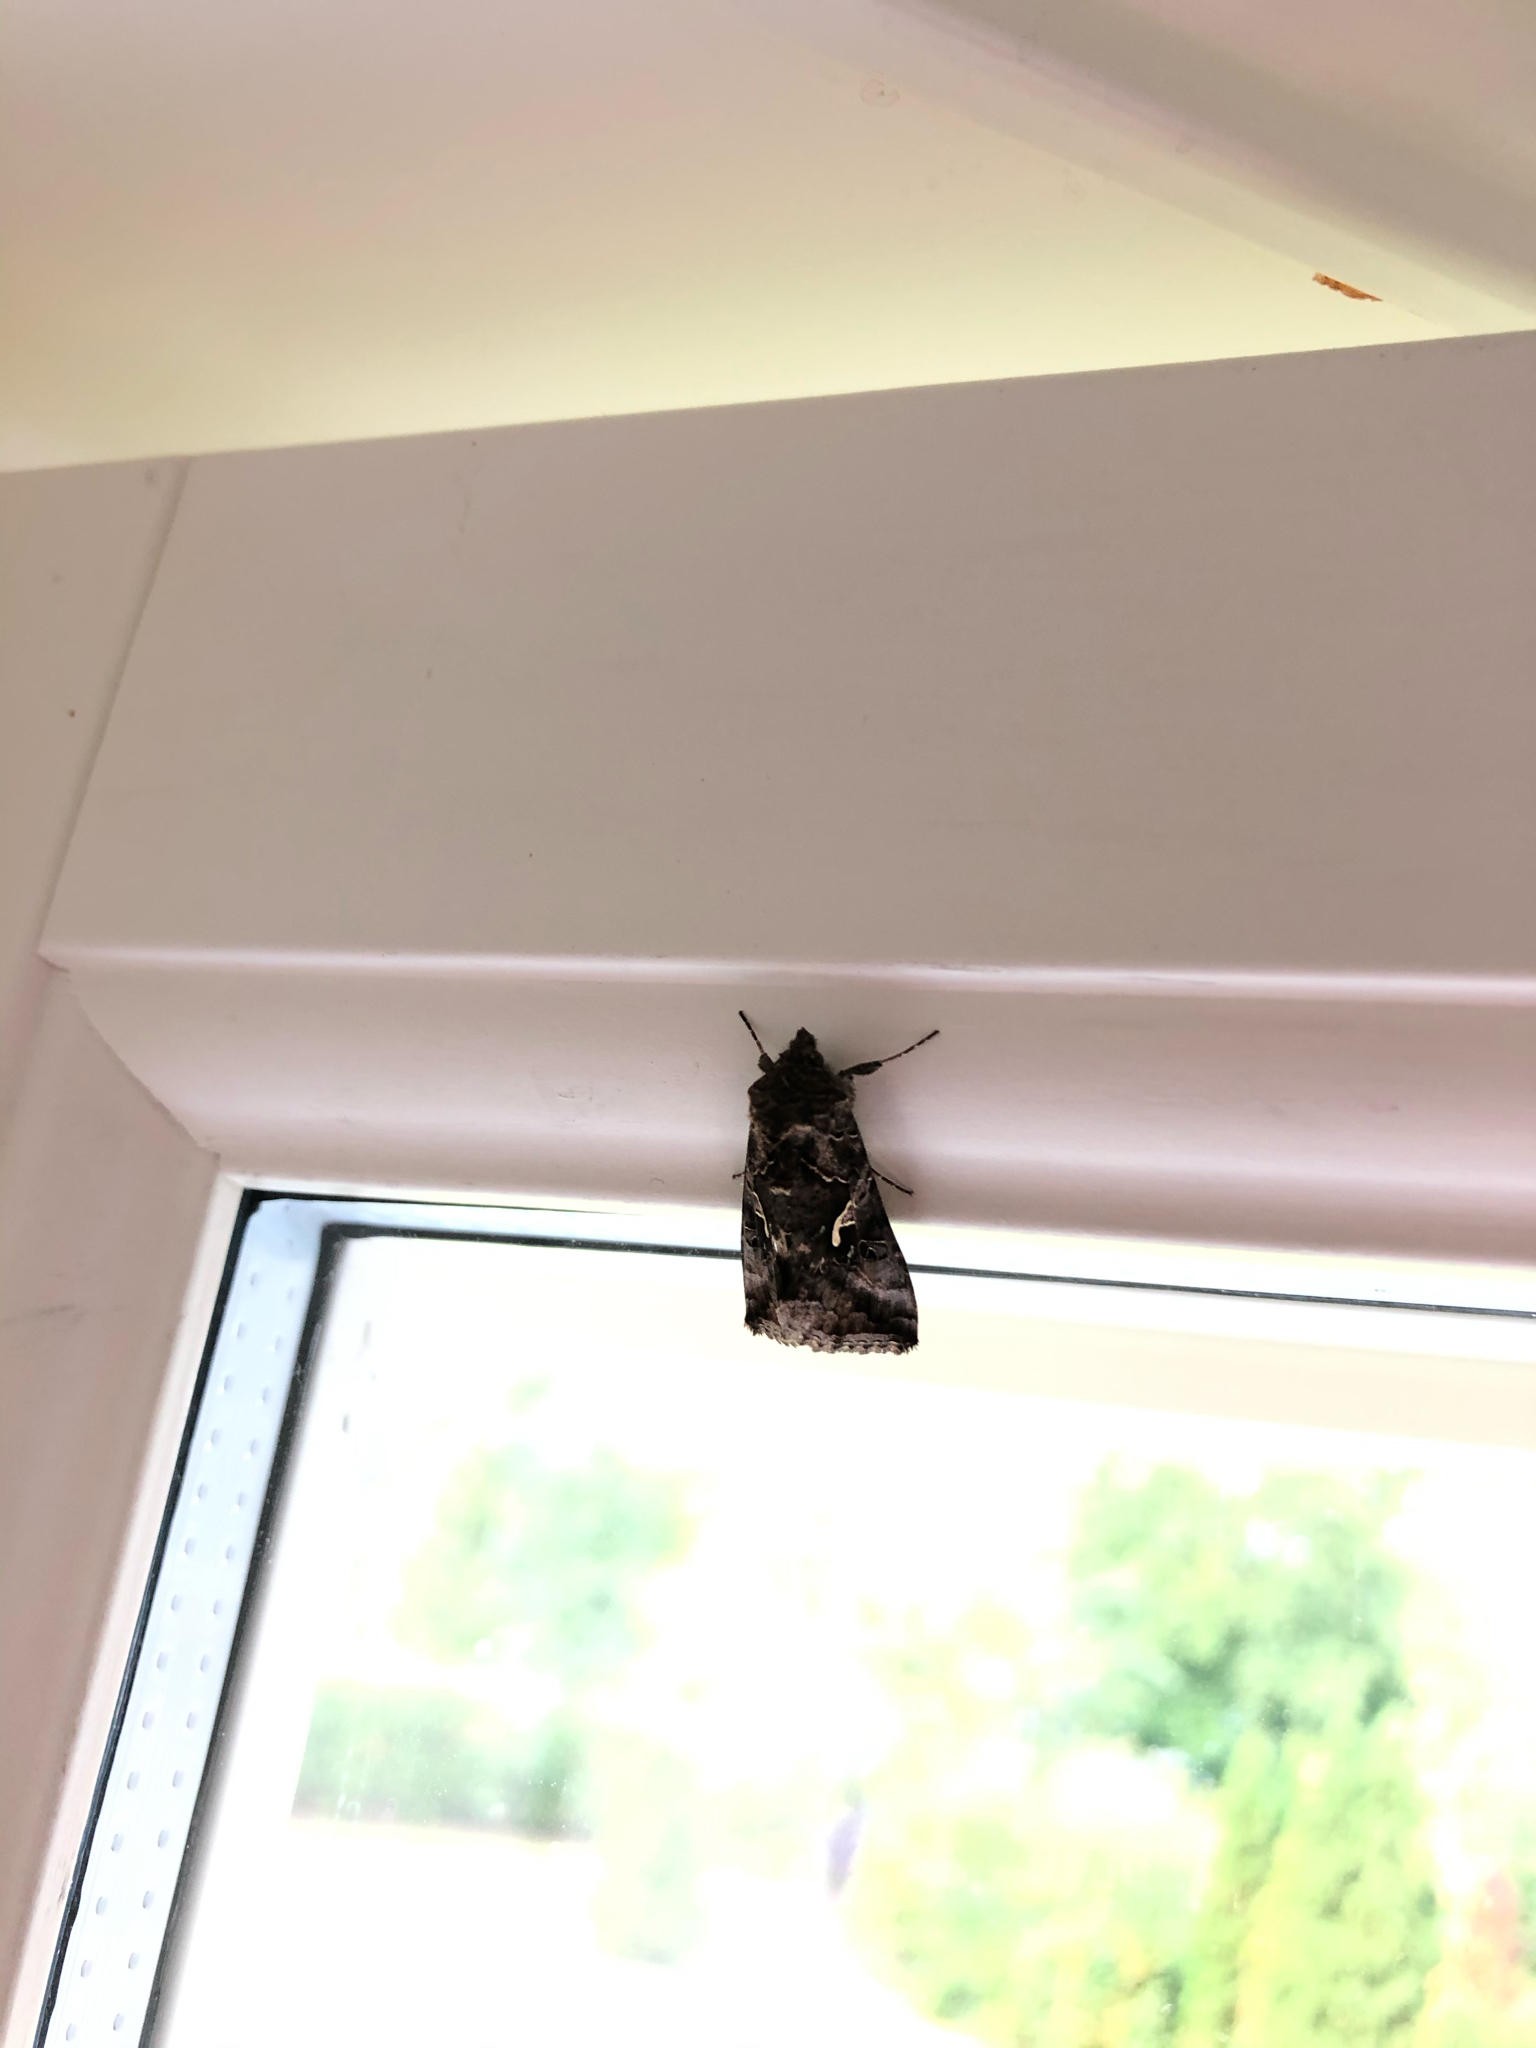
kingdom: Animalia
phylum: Arthropoda
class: Insecta
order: Lepidoptera
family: Noctuidae
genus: Autographa
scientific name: Autographa gamma
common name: Silver y
